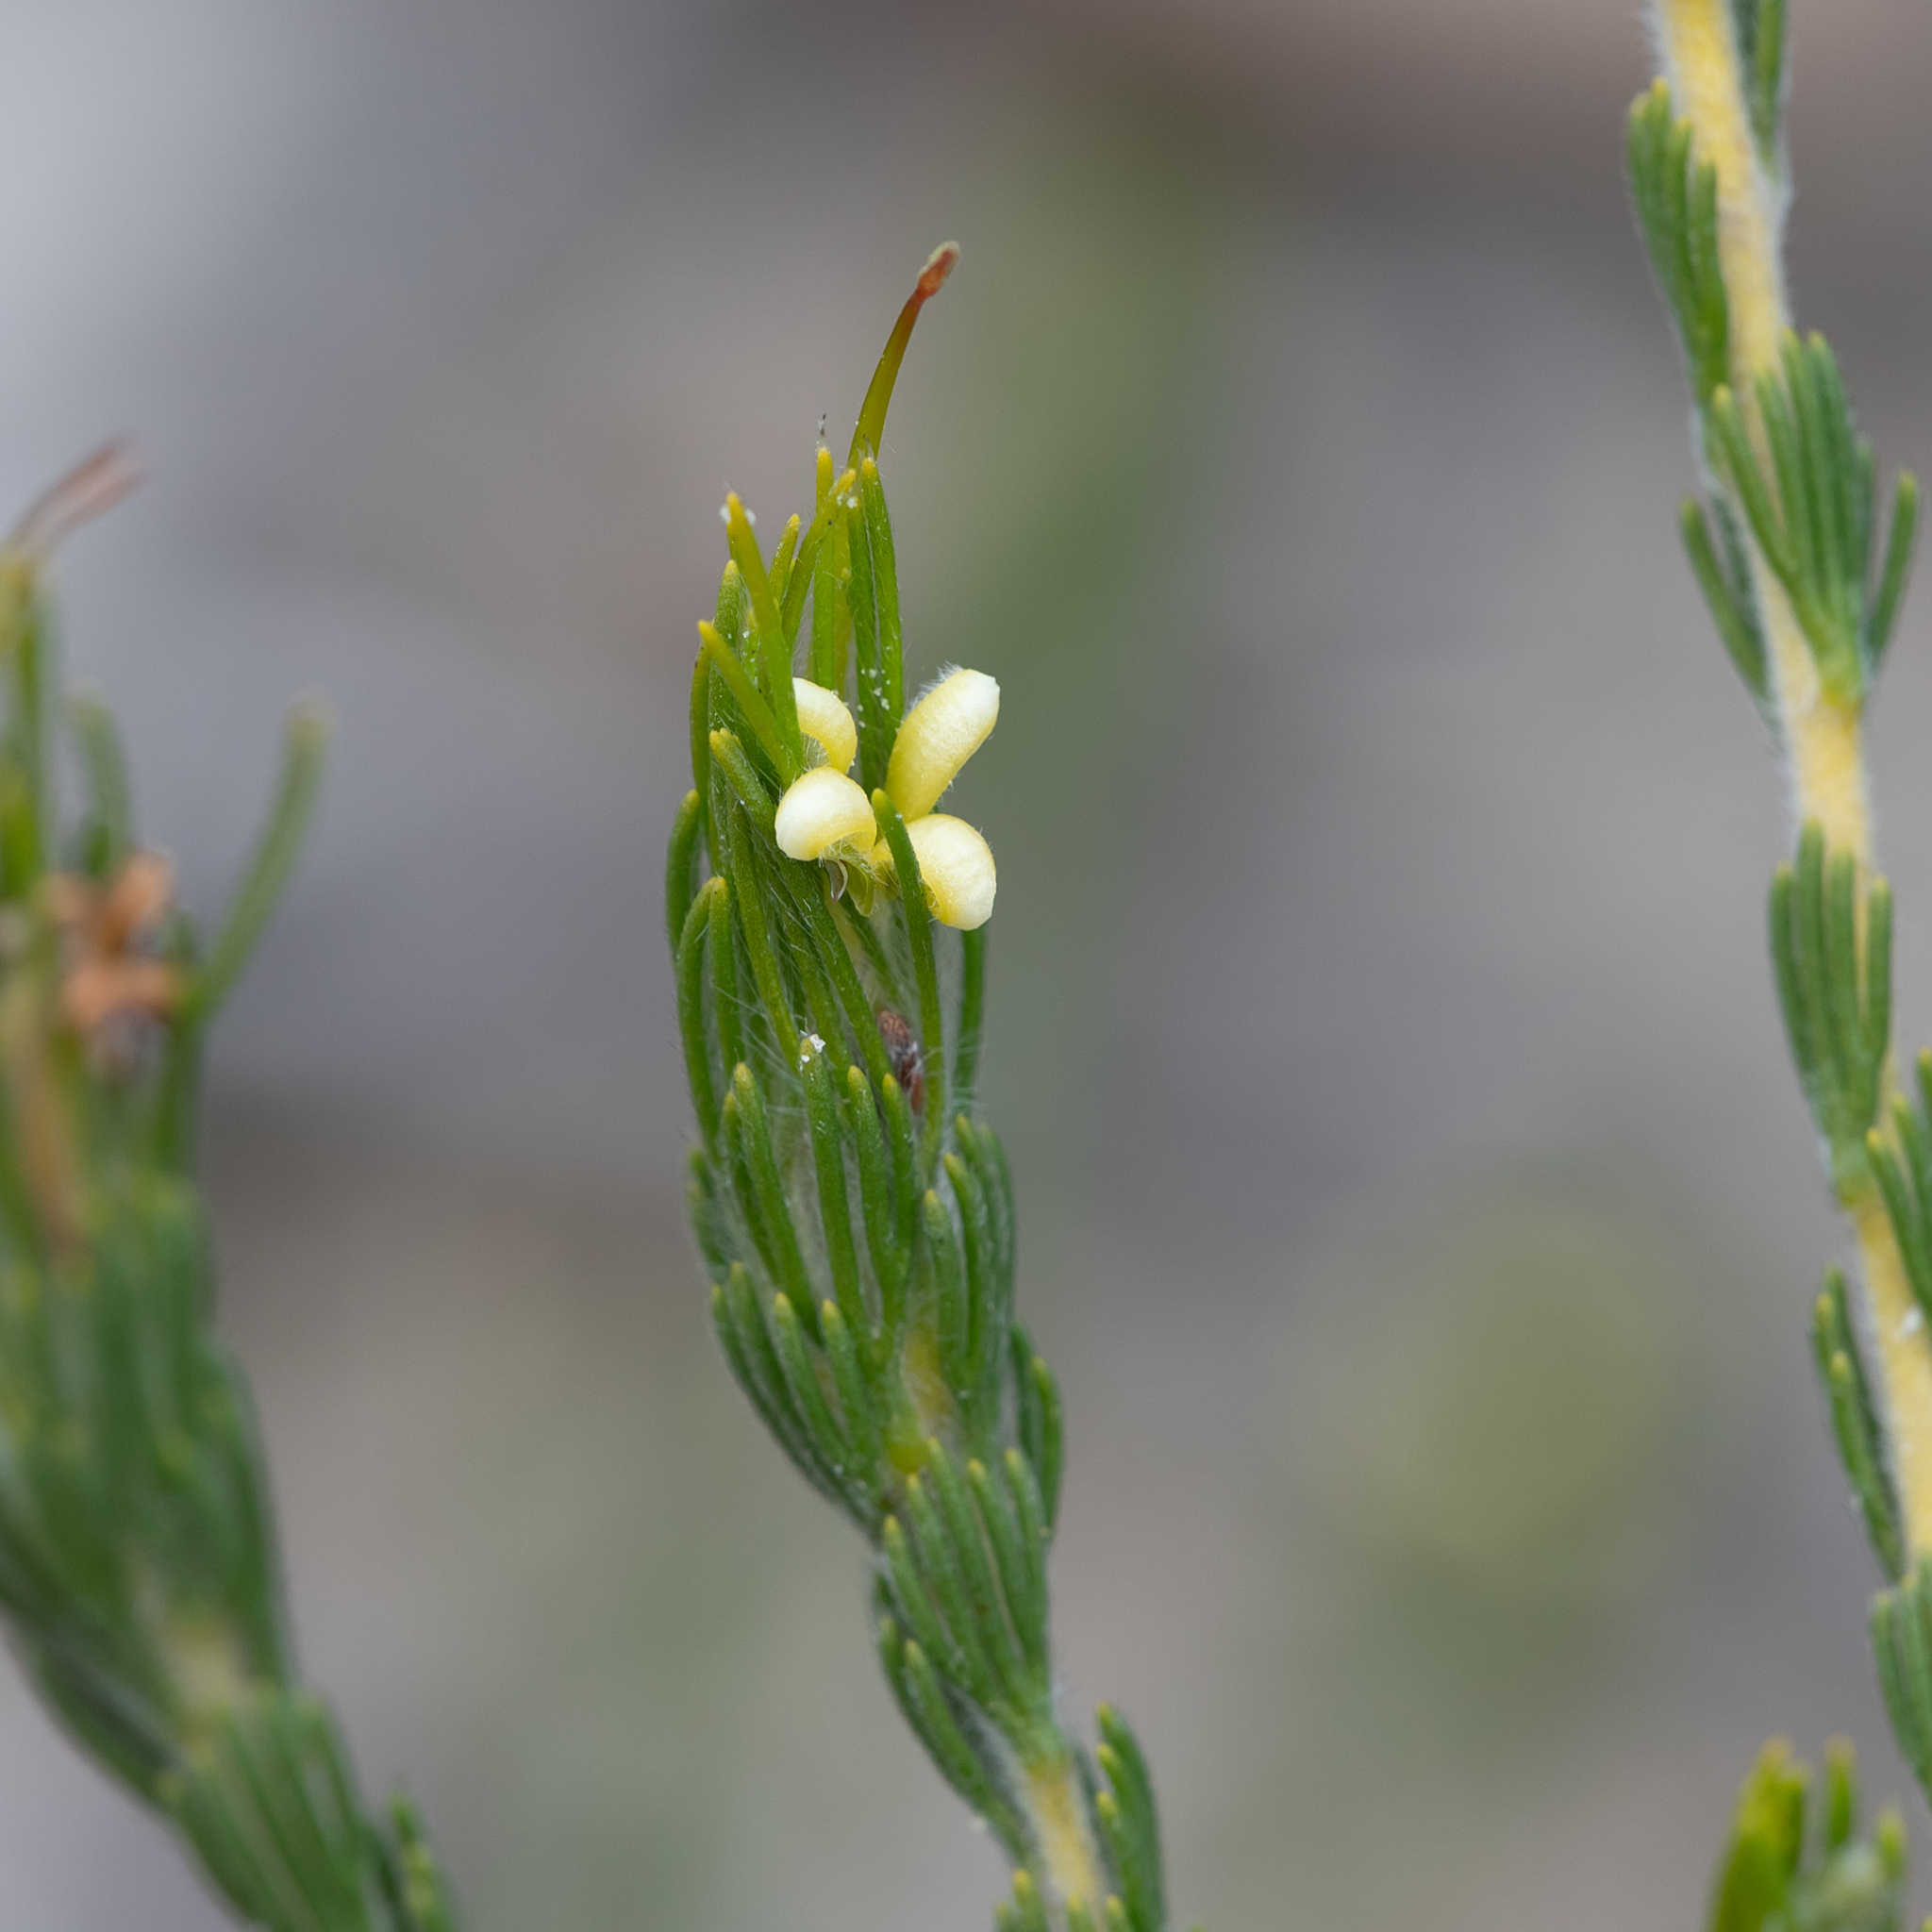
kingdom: Plantae
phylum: Tracheophyta
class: Magnoliopsida
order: Proteales
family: Proteaceae
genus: Adenanthos
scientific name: Adenanthos terminalis
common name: Yellow gland-flower
